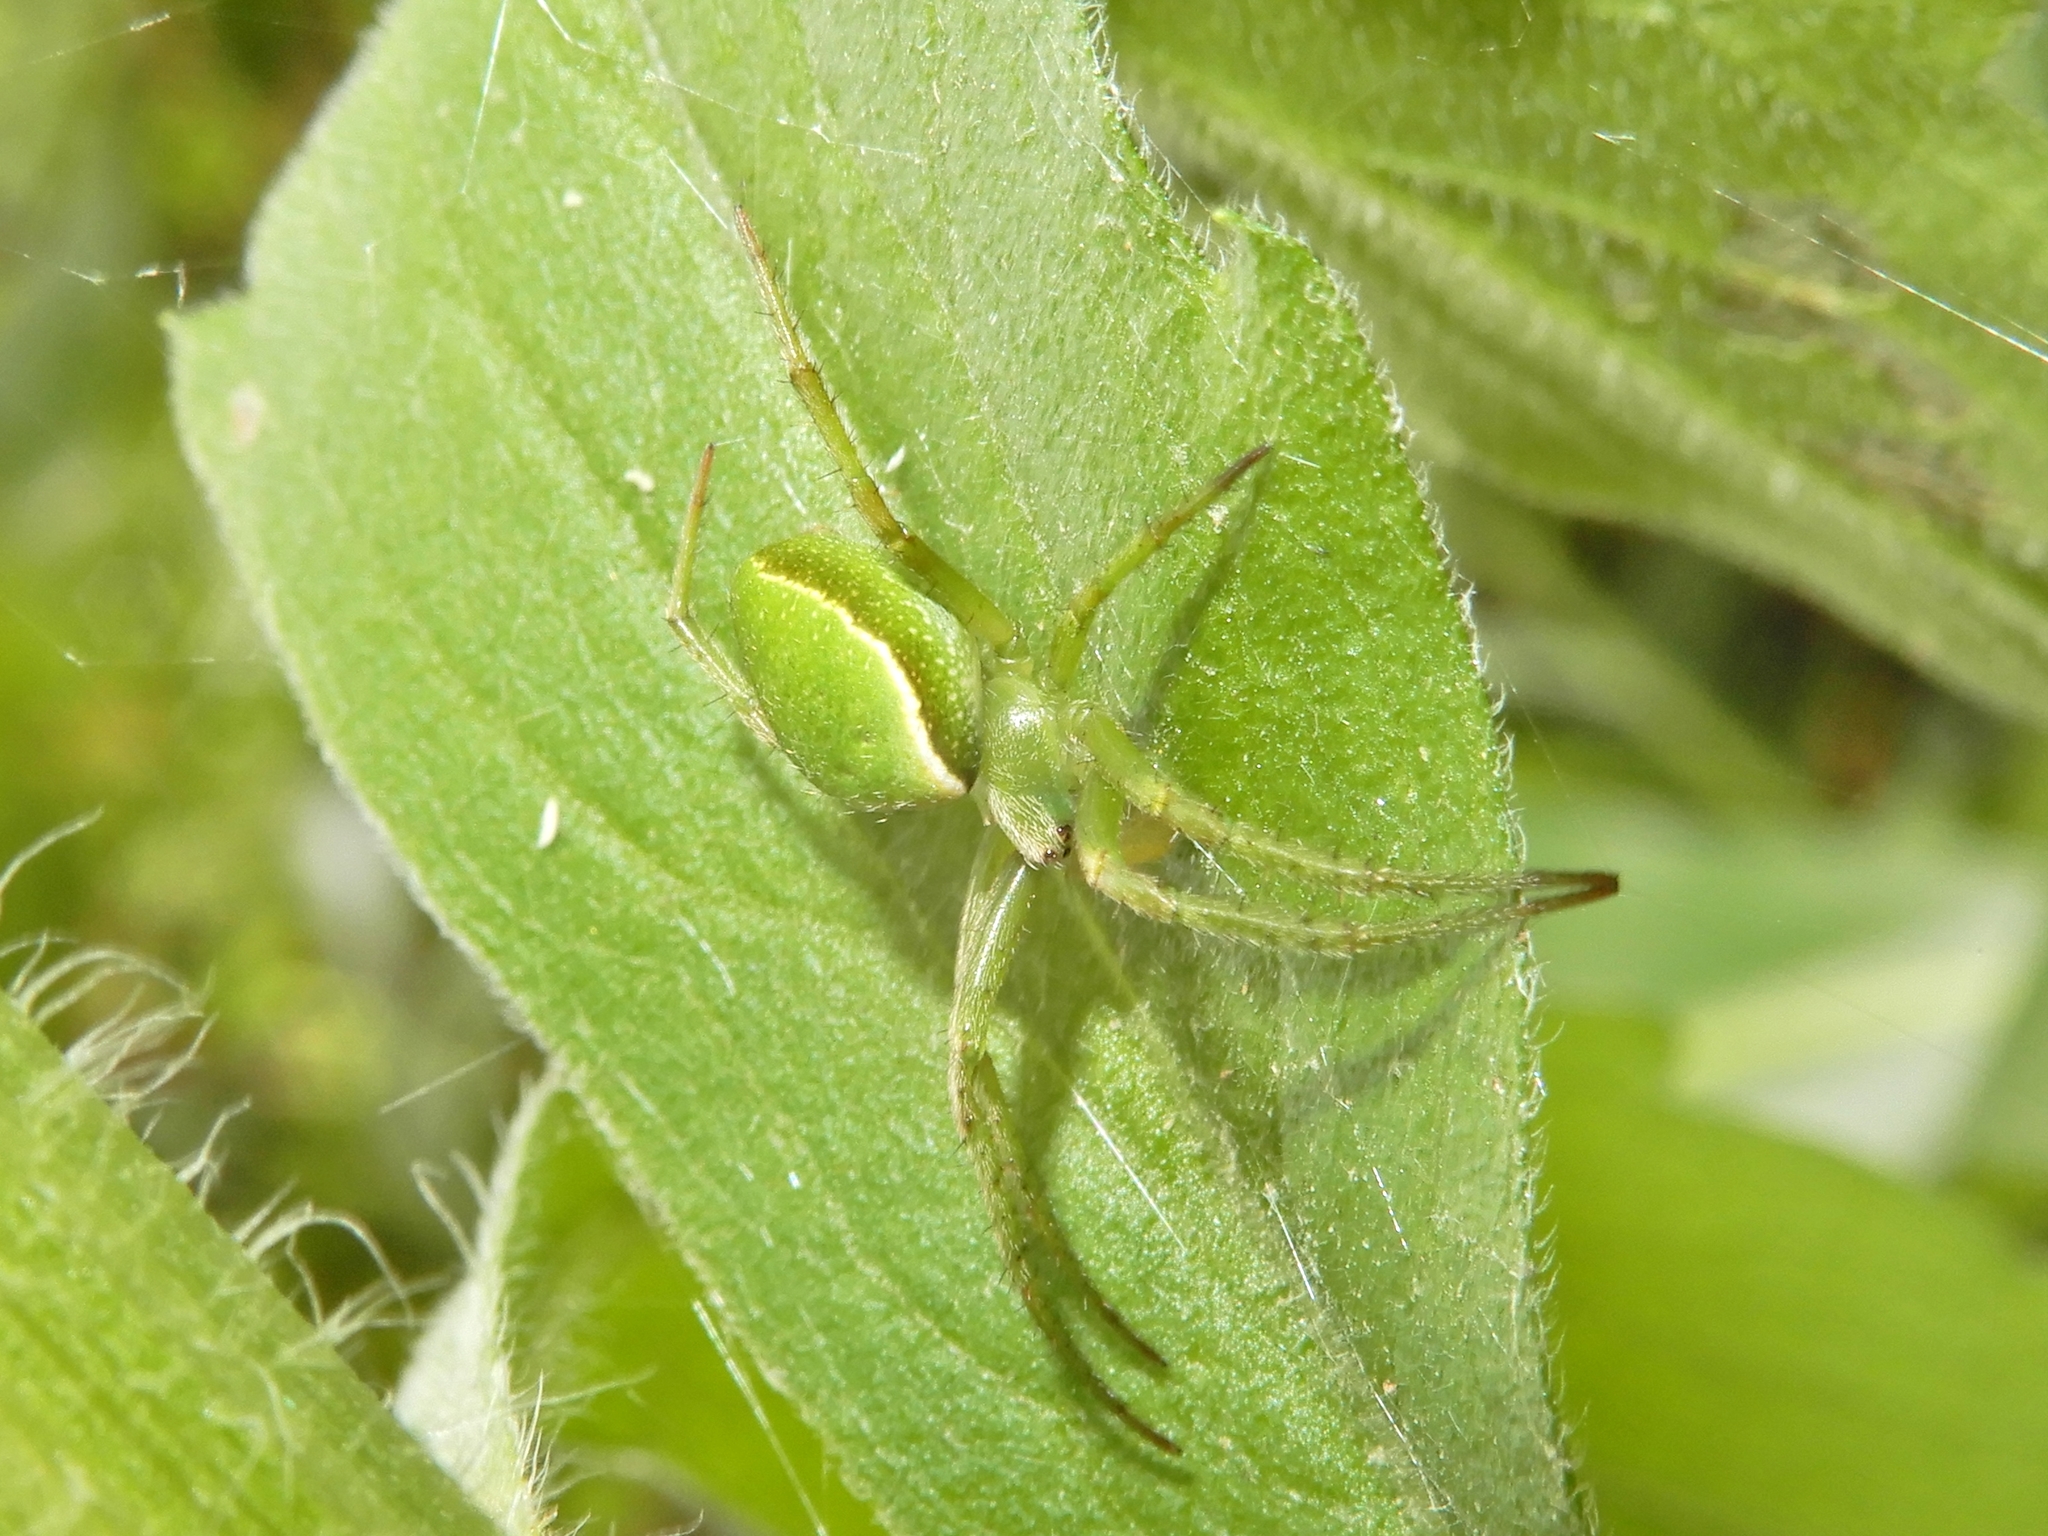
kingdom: Animalia
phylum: Arthropoda
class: Arachnida
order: Araneae
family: Araneidae
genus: Colaranea
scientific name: Colaranea viriditas
